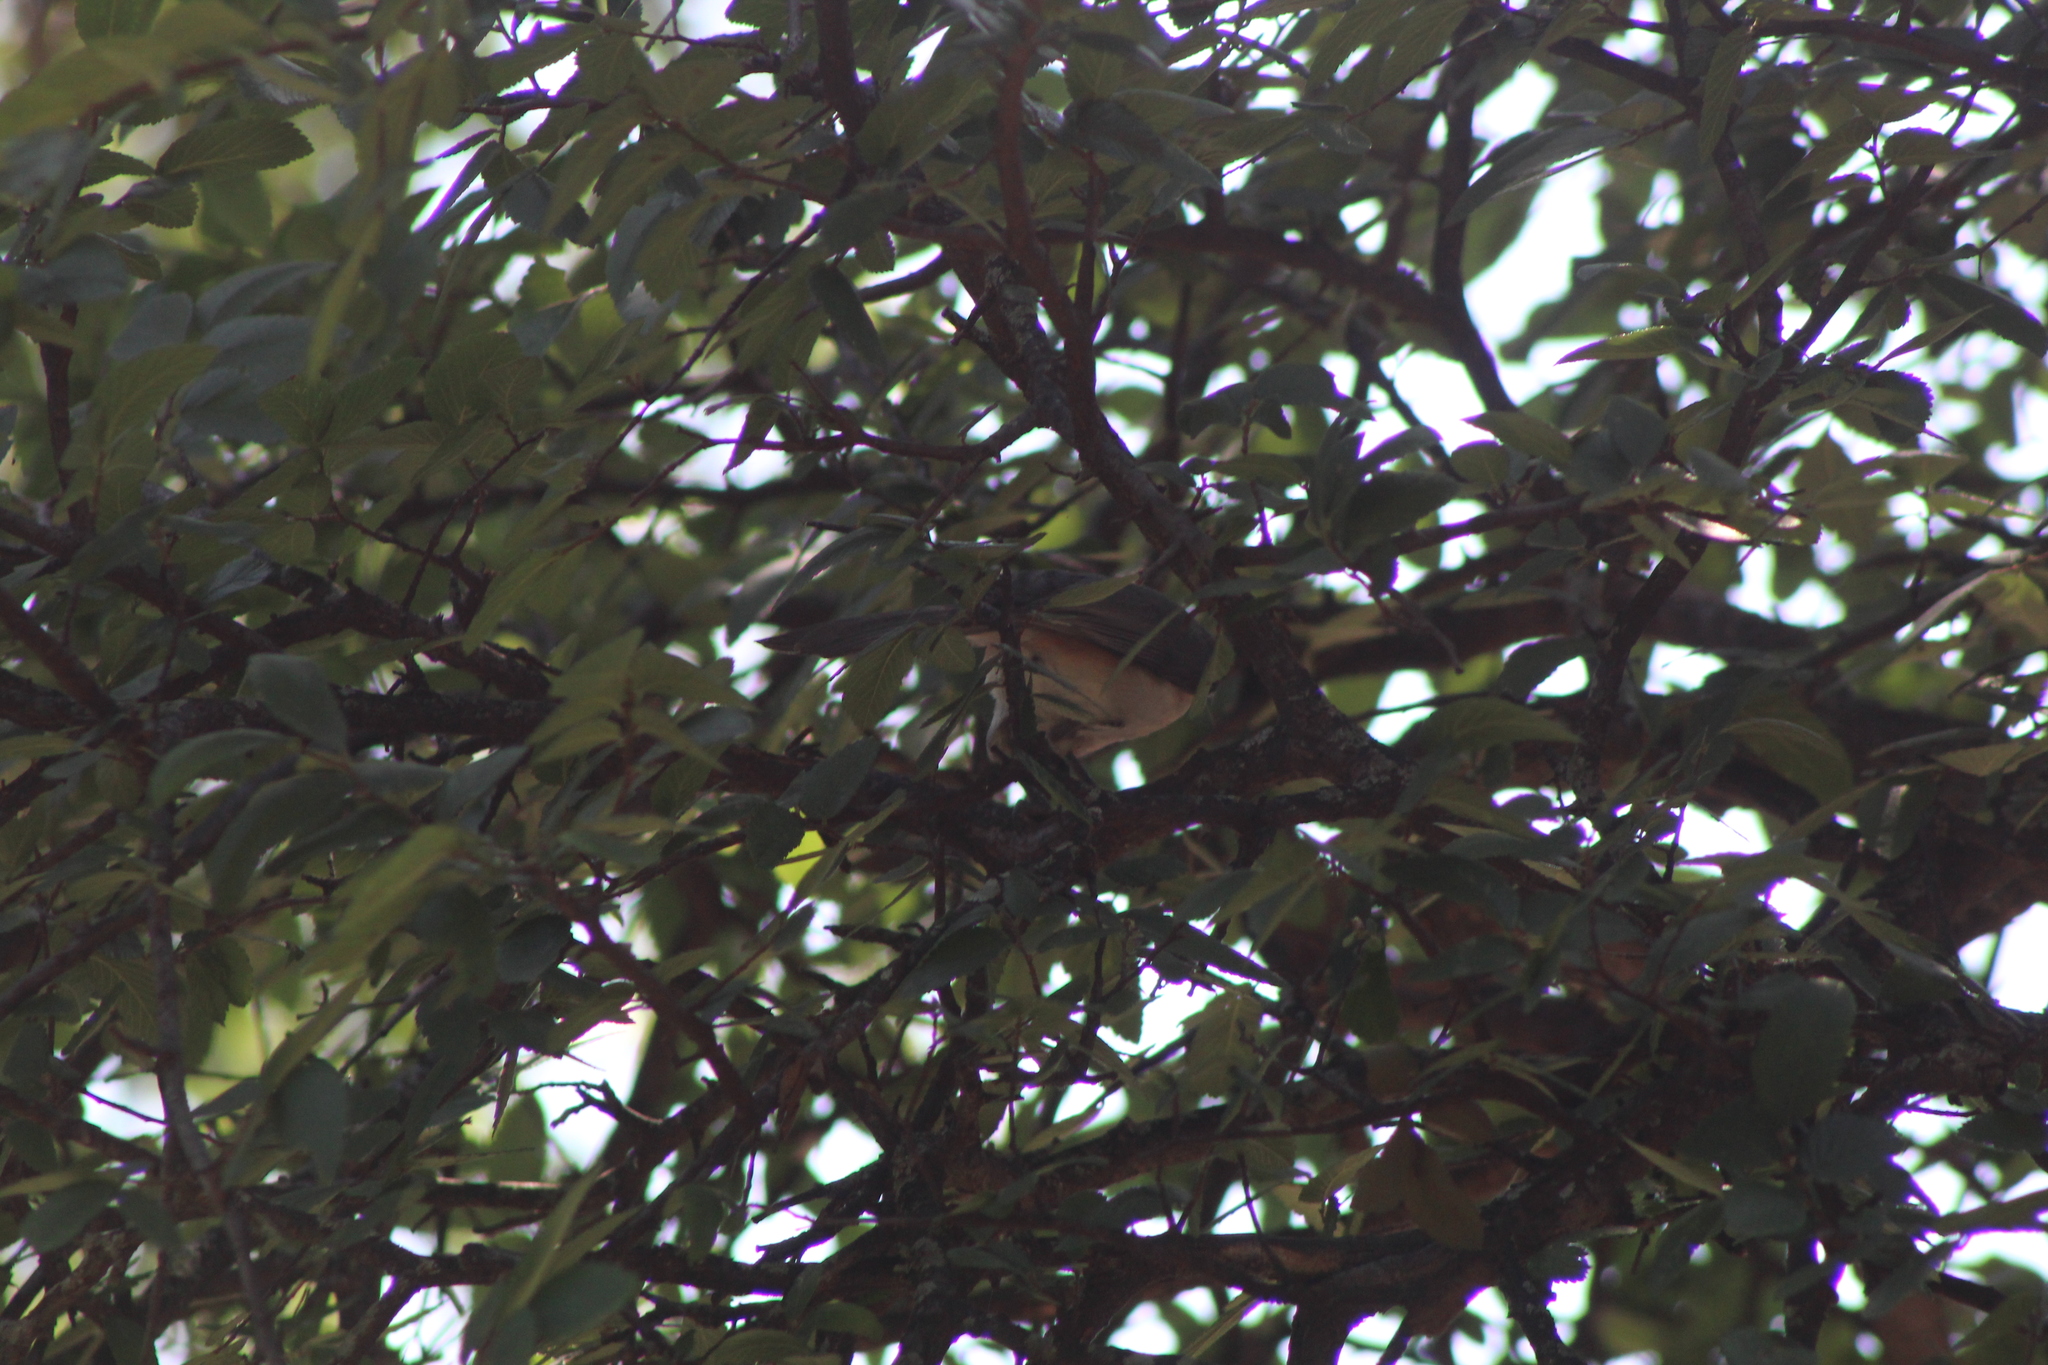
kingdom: Animalia
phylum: Chordata
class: Aves
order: Passeriformes
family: Paridae
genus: Baeolophus
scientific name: Baeolophus bicolor
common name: Tufted titmouse
